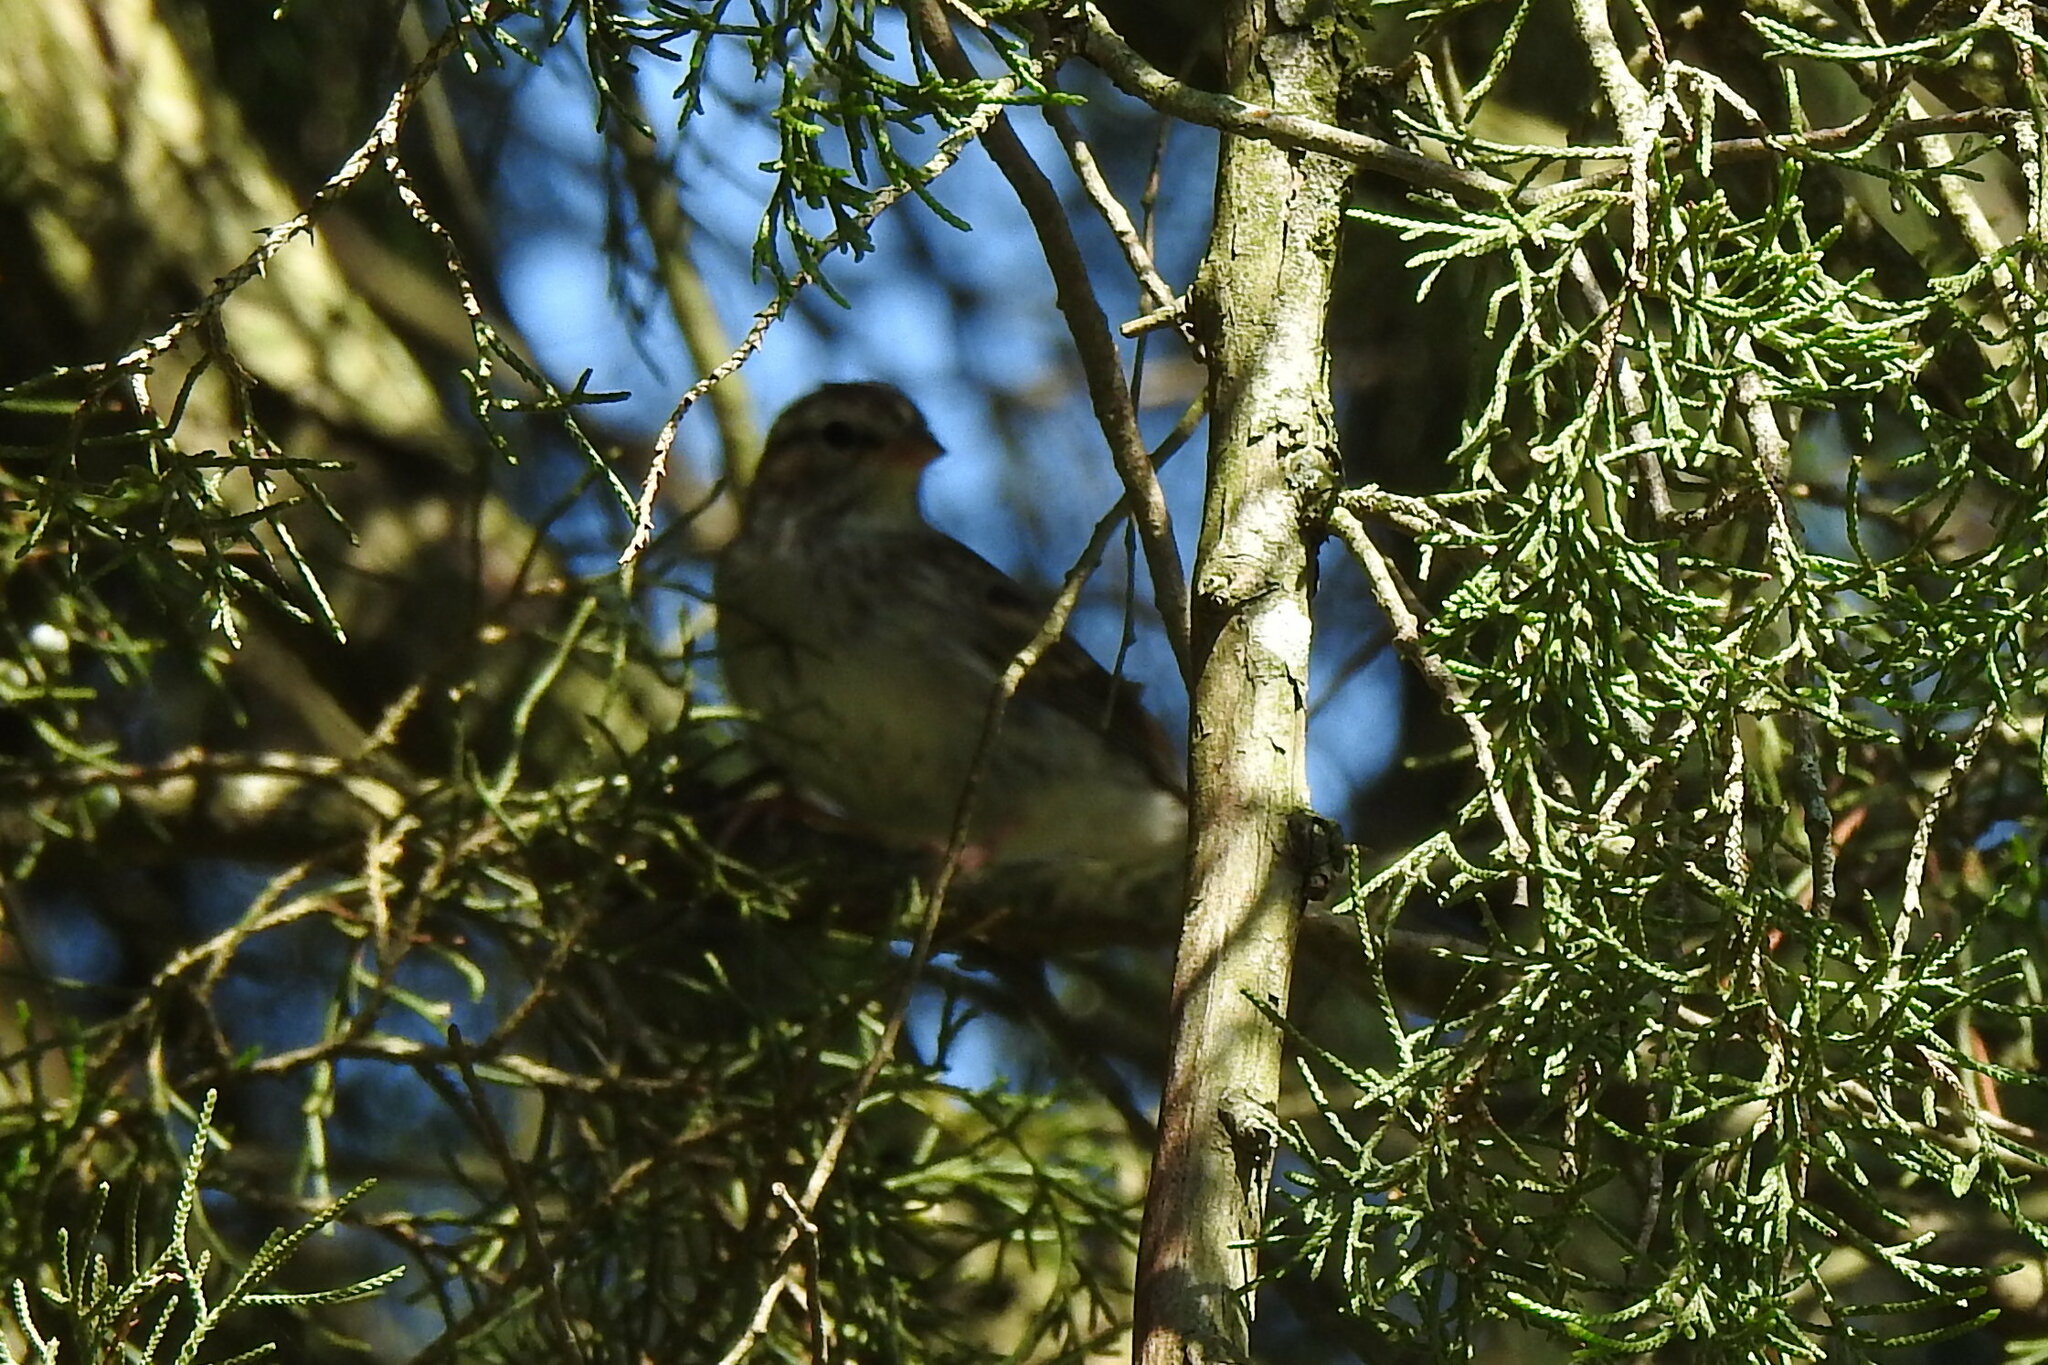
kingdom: Animalia
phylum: Chordata
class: Aves
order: Passeriformes
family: Passerellidae
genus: Spizella
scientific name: Spizella passerina
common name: Chipping sparrow
